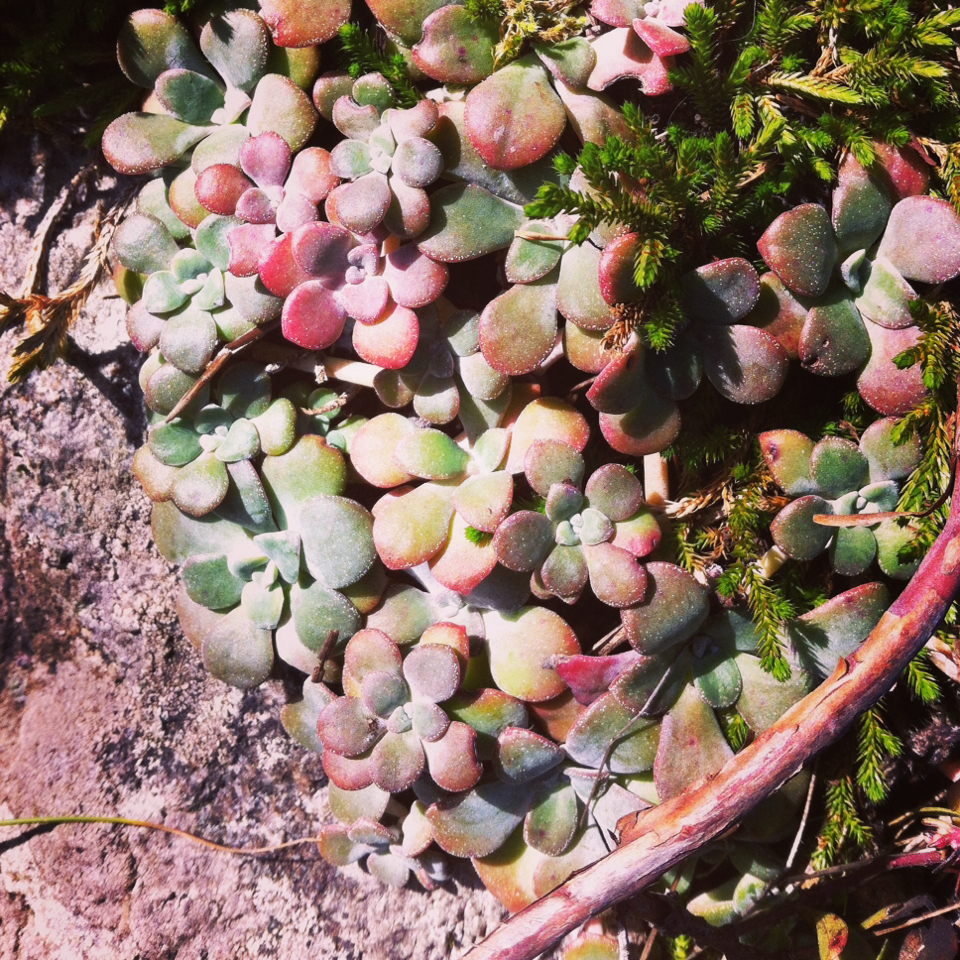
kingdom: Plantae
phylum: Tracheophyta
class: Magnoliopsida
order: Saxifragales
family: Crassulaceae
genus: Sedum
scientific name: Sedum spathulifolium
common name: Colorado stonecrop
